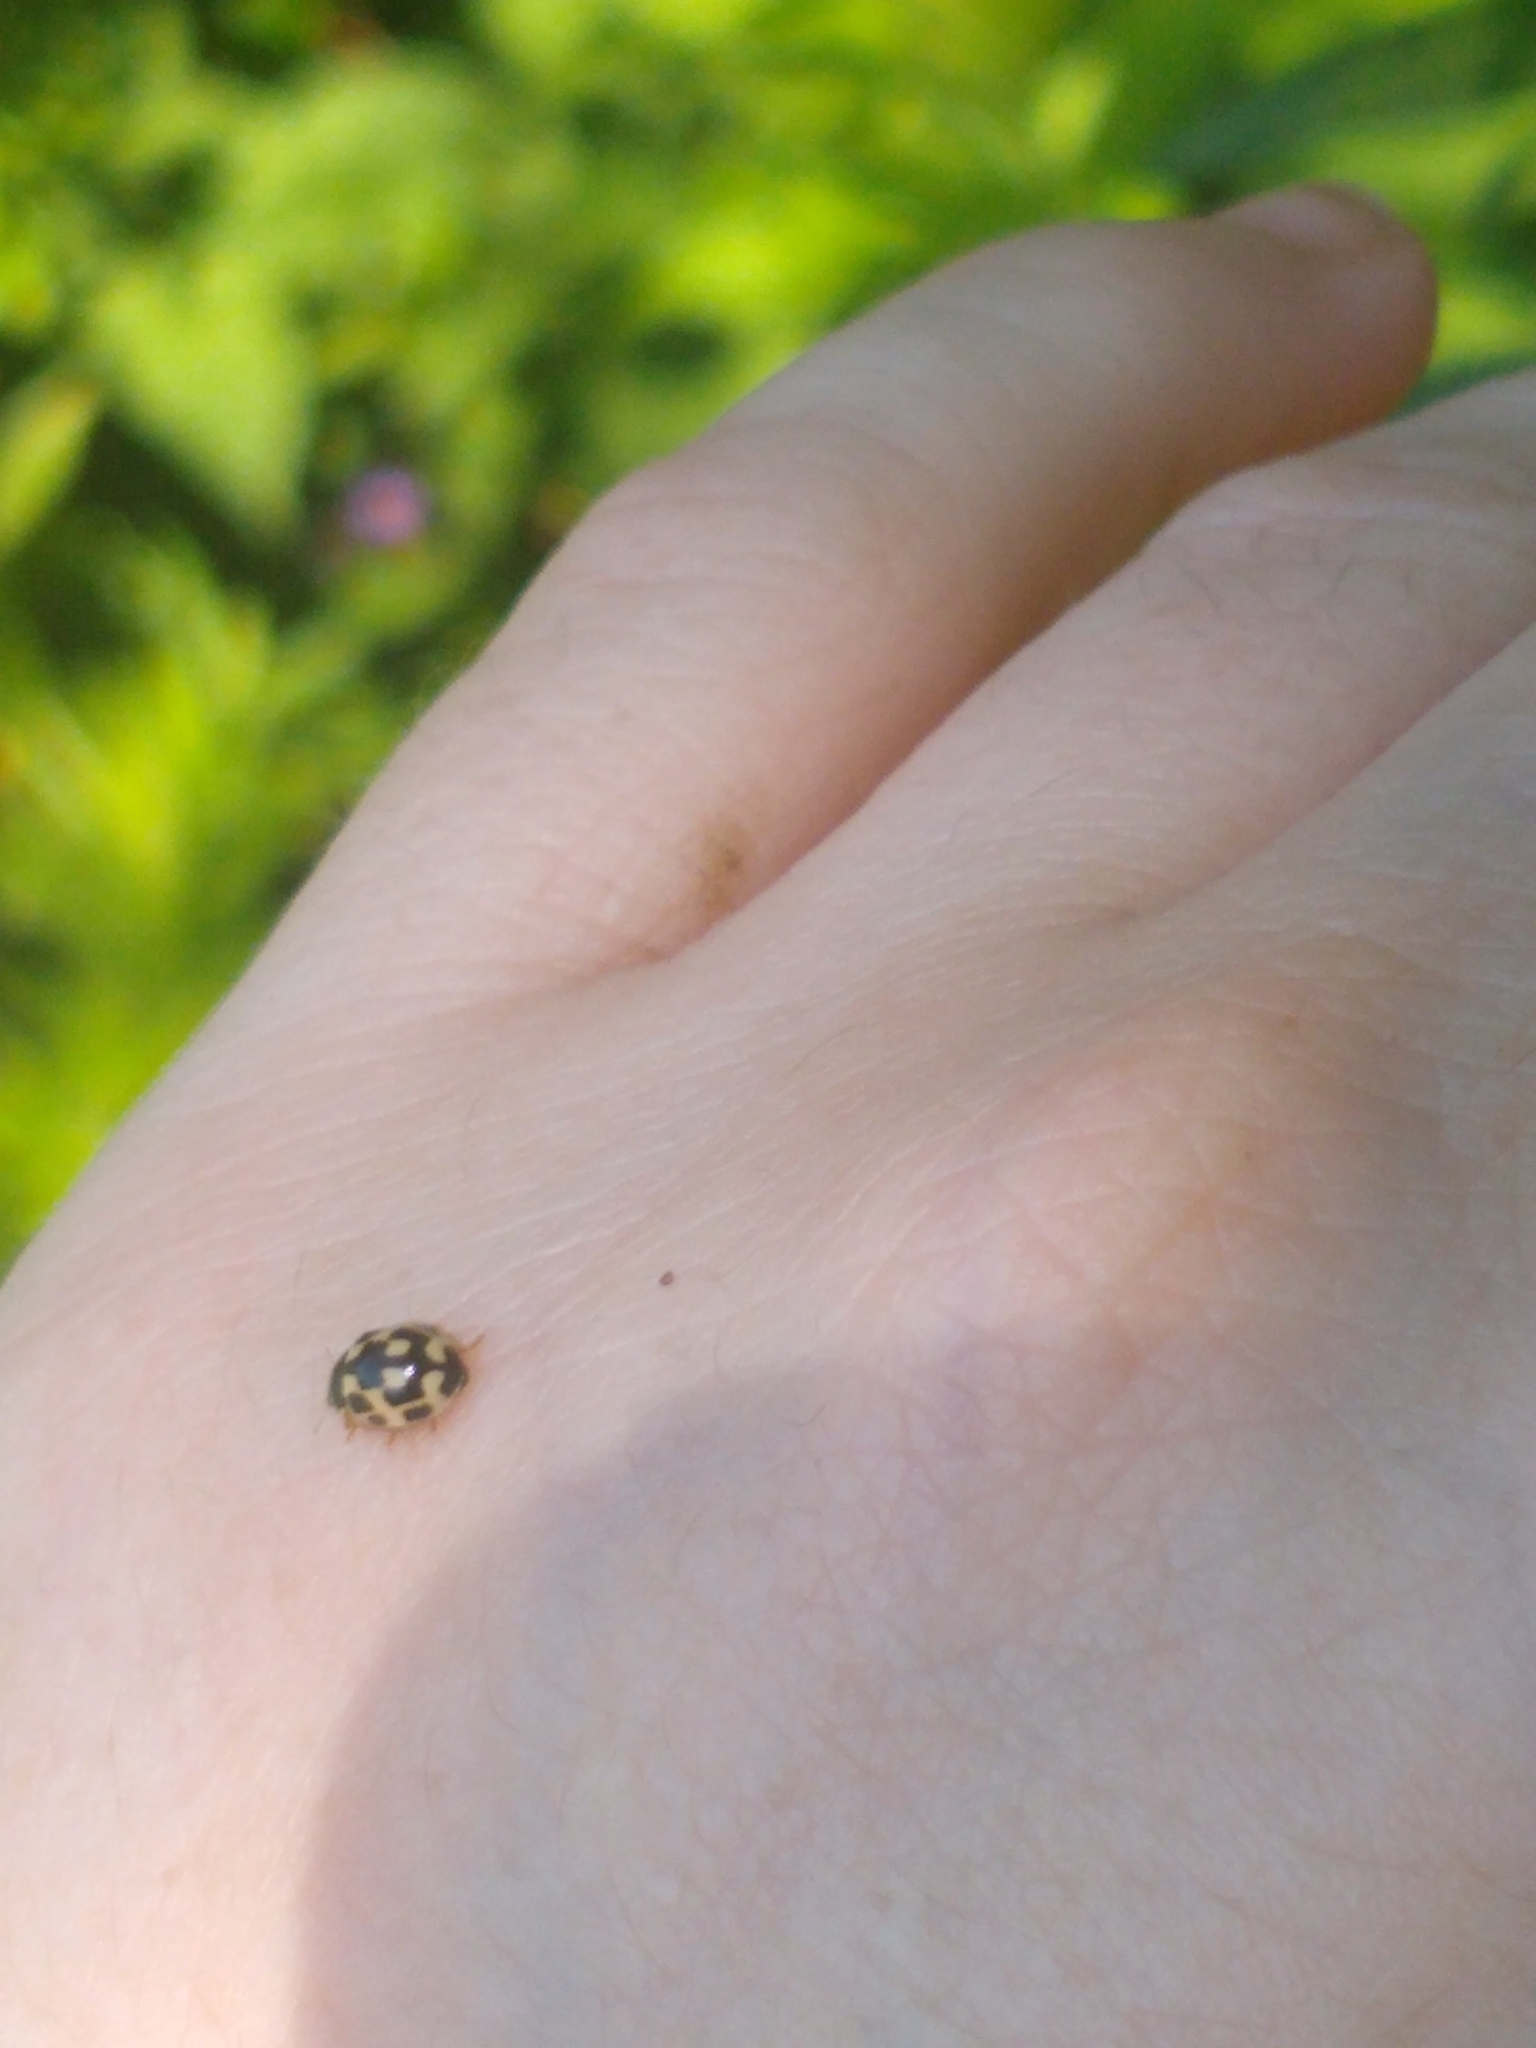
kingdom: Animalia
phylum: Arthropoda
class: Insecta
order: Coleoptera
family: Coccinellidae
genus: Propylaea
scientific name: Propylaea quatuordecimpunctata
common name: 14-spotted ladybird beetle
